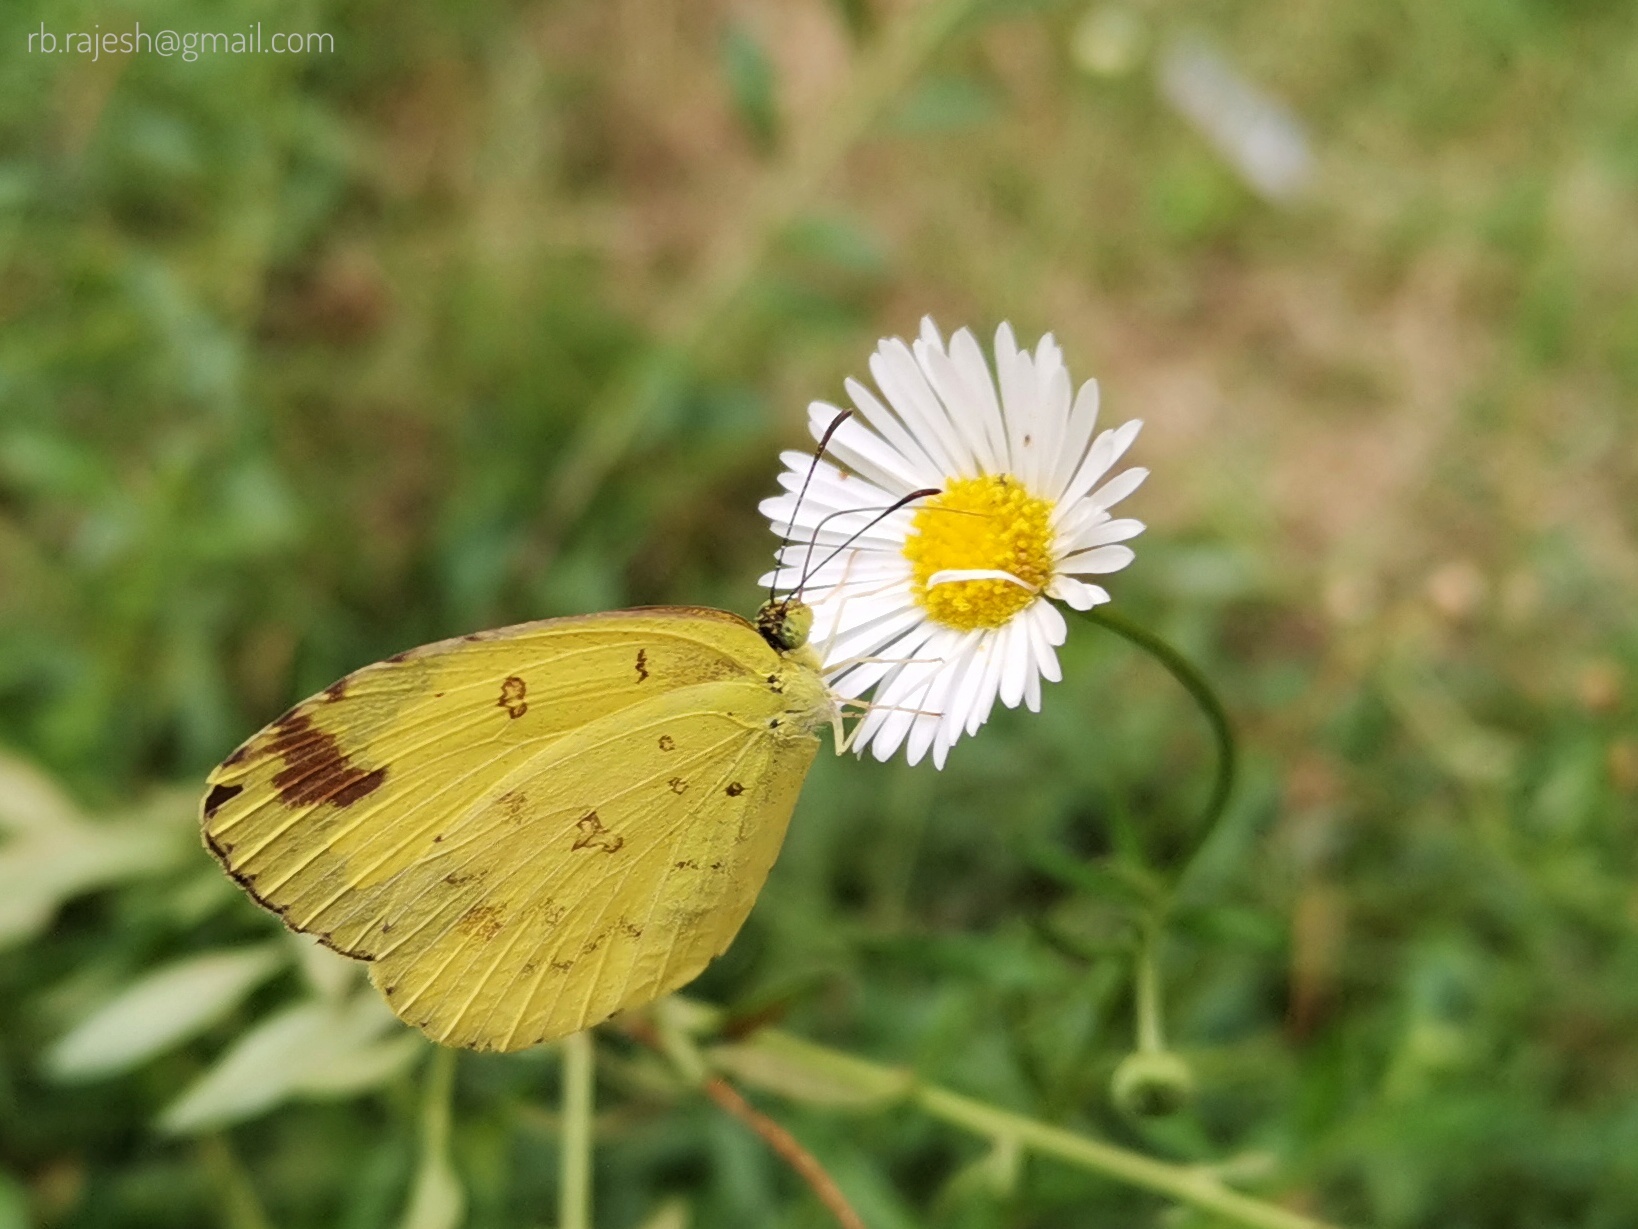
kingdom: Animalia
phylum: Arthropoda
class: Insecta
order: Lepidoptera
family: Pieridae
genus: Eurema
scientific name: Eurema hecabe
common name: Pale grass yellow
